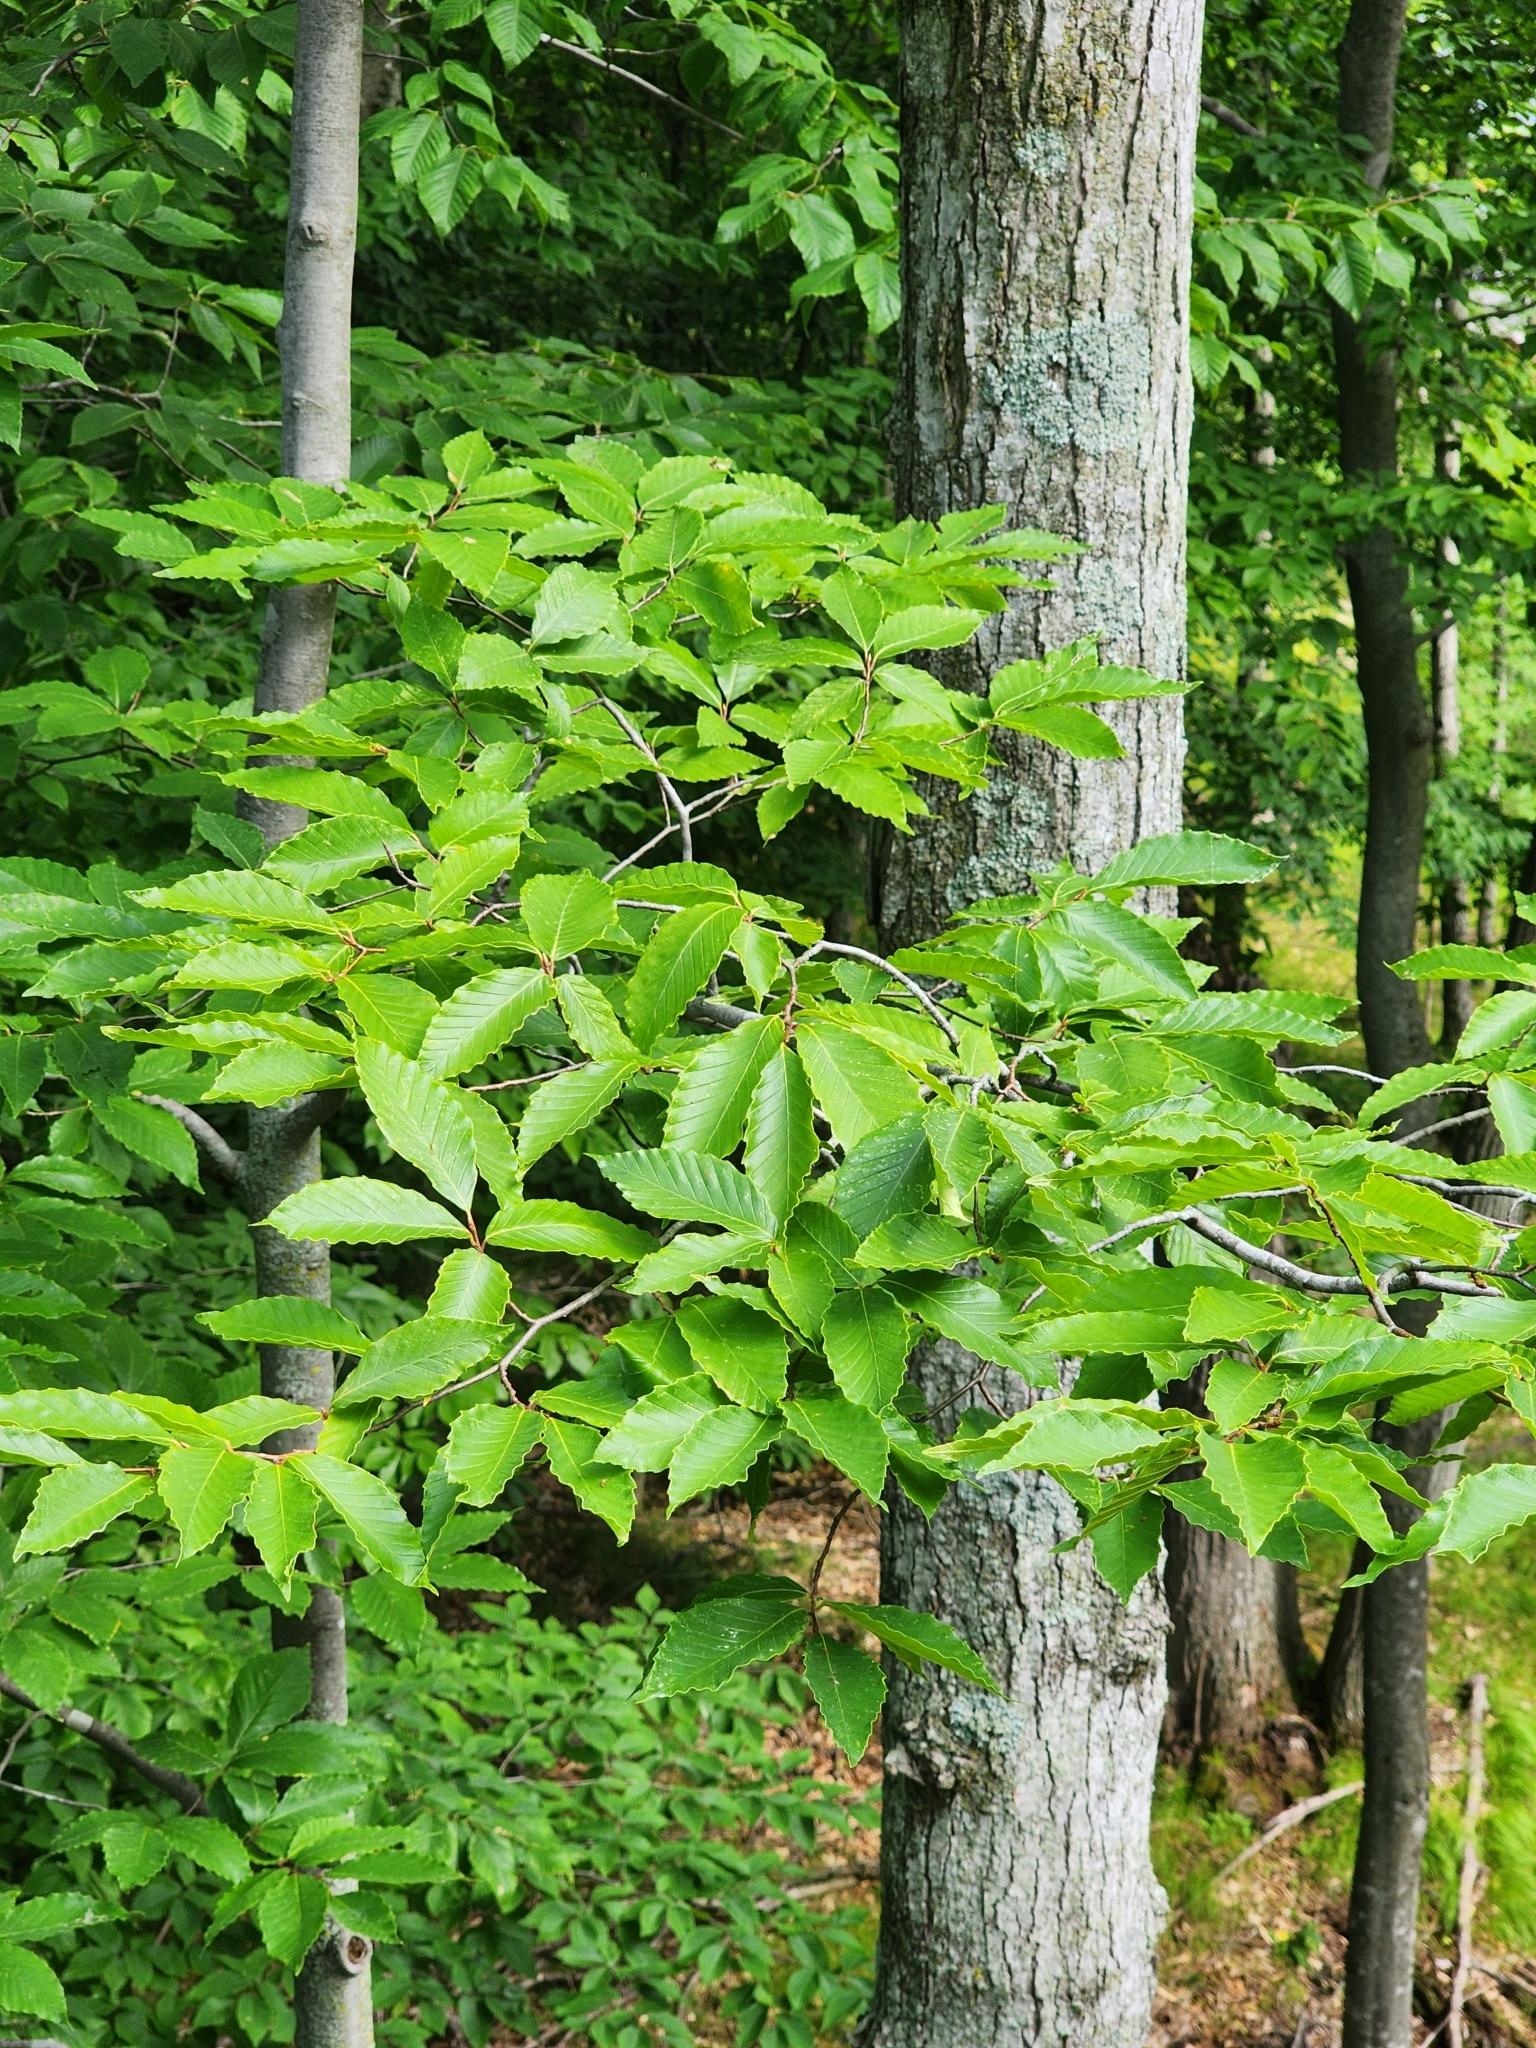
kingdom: Plantae
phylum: Tracheophyta
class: Magnoliopsida
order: Fagales
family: Fagaceae
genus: Fagus
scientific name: Fagus grandifolia
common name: American beech
